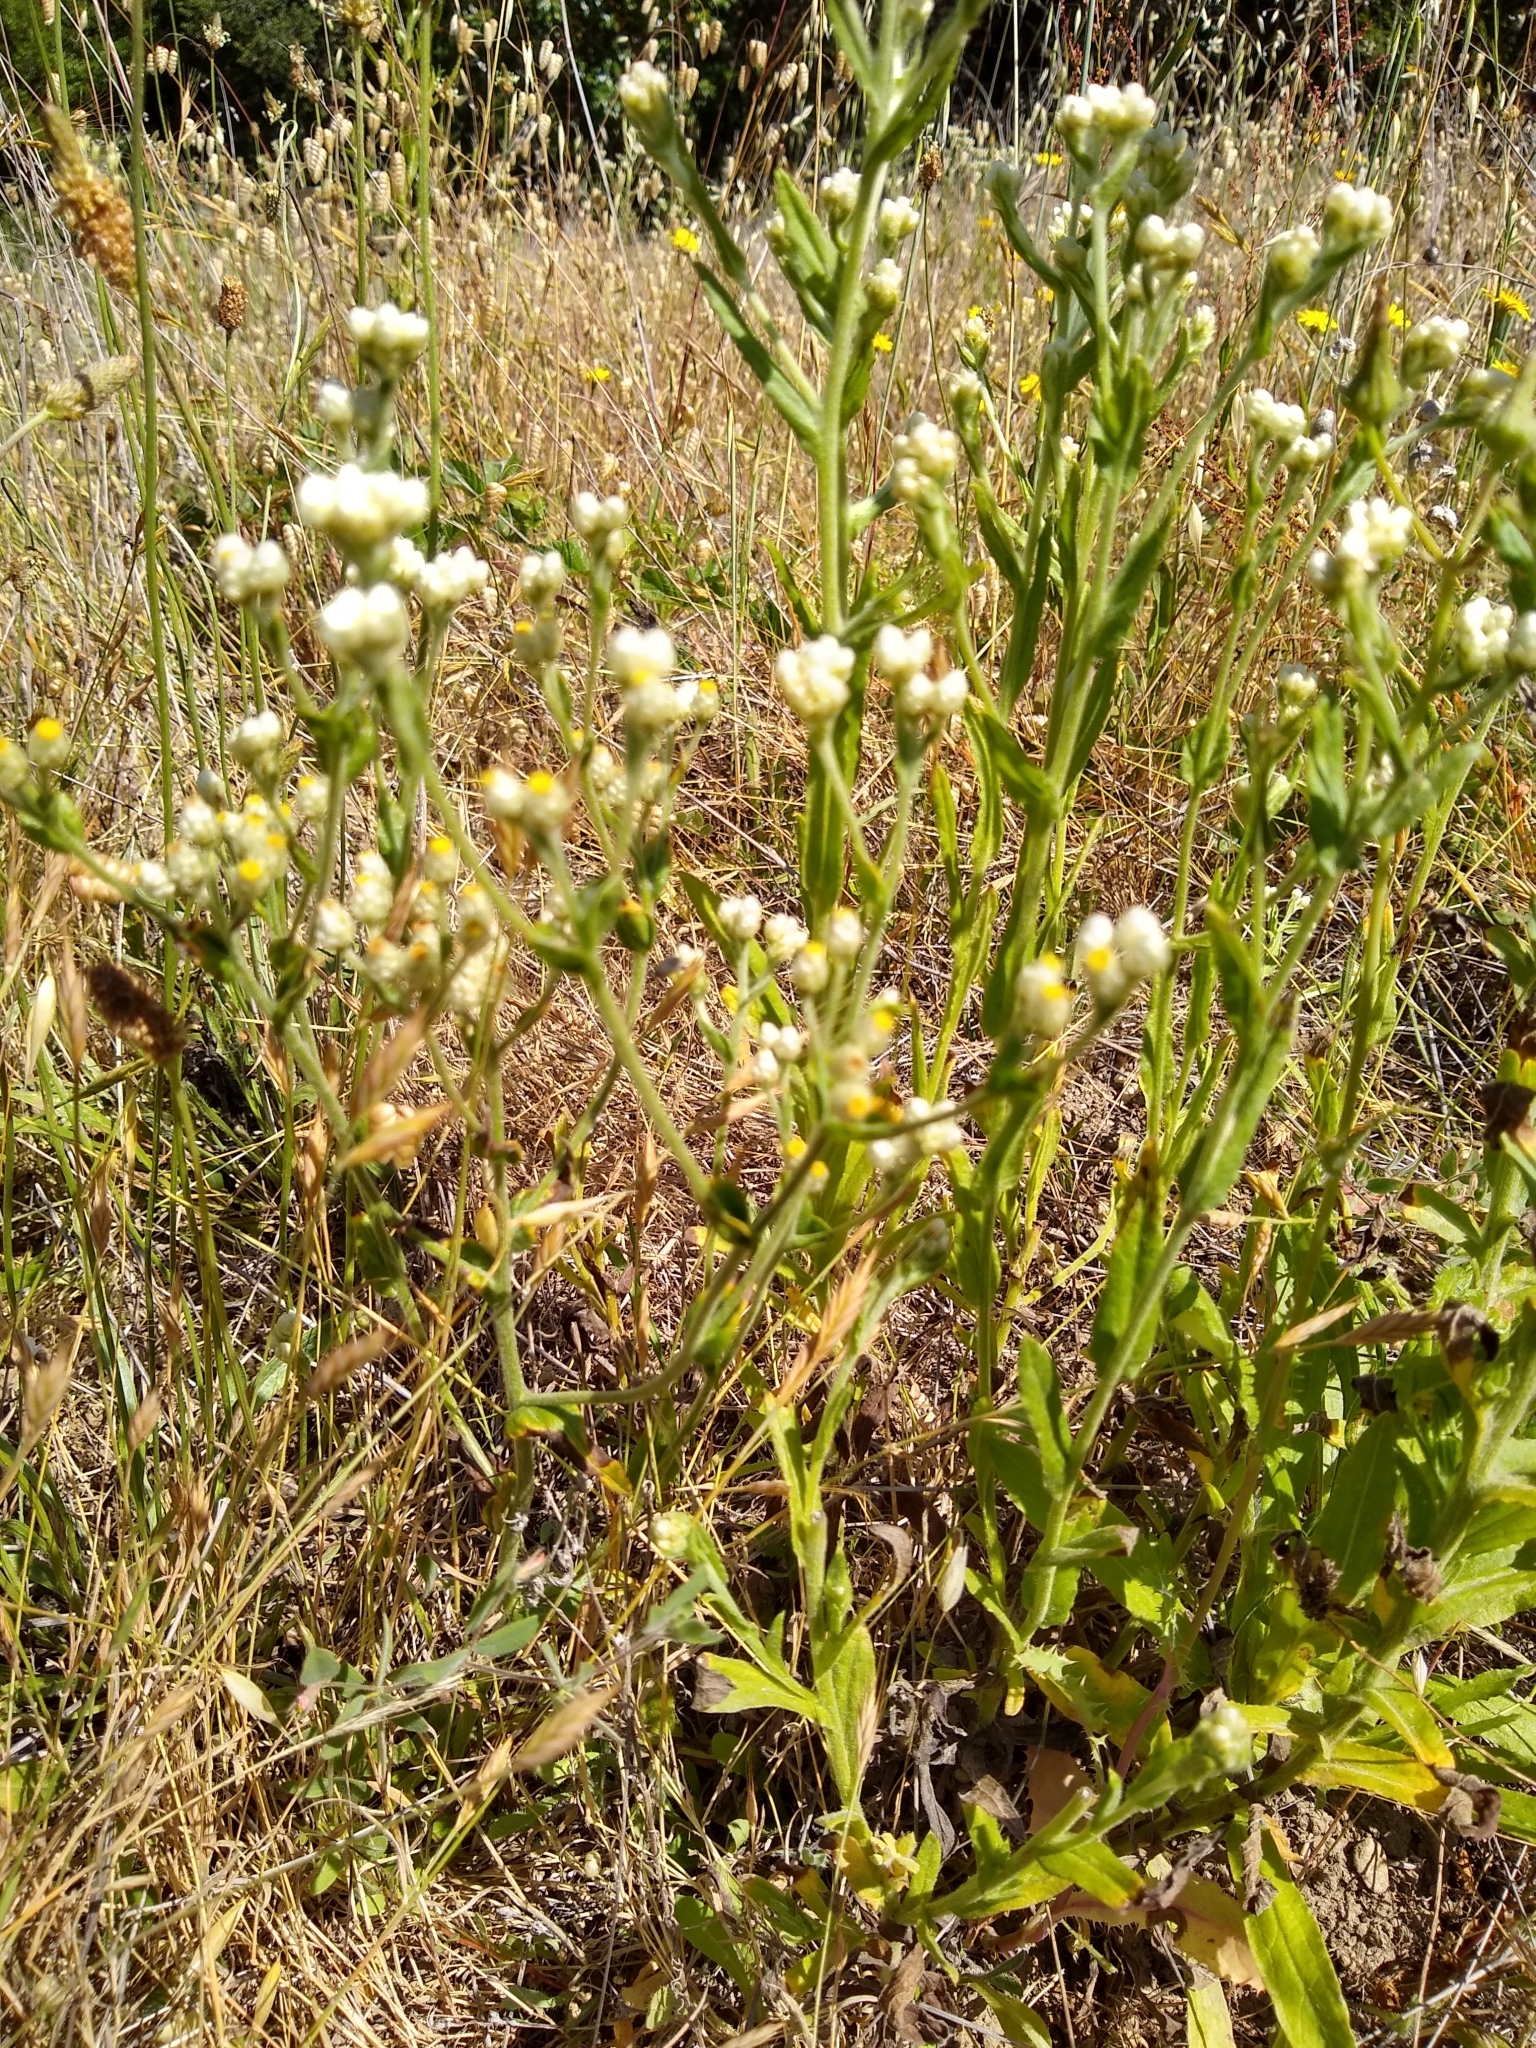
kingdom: Plantae
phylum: Tracheophyta
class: Magnoliopsida
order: Asterales
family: Asteraceae
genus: Pseudognaphalium
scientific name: Pseudognaphalium californicum
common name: California rabbit-tobacco
